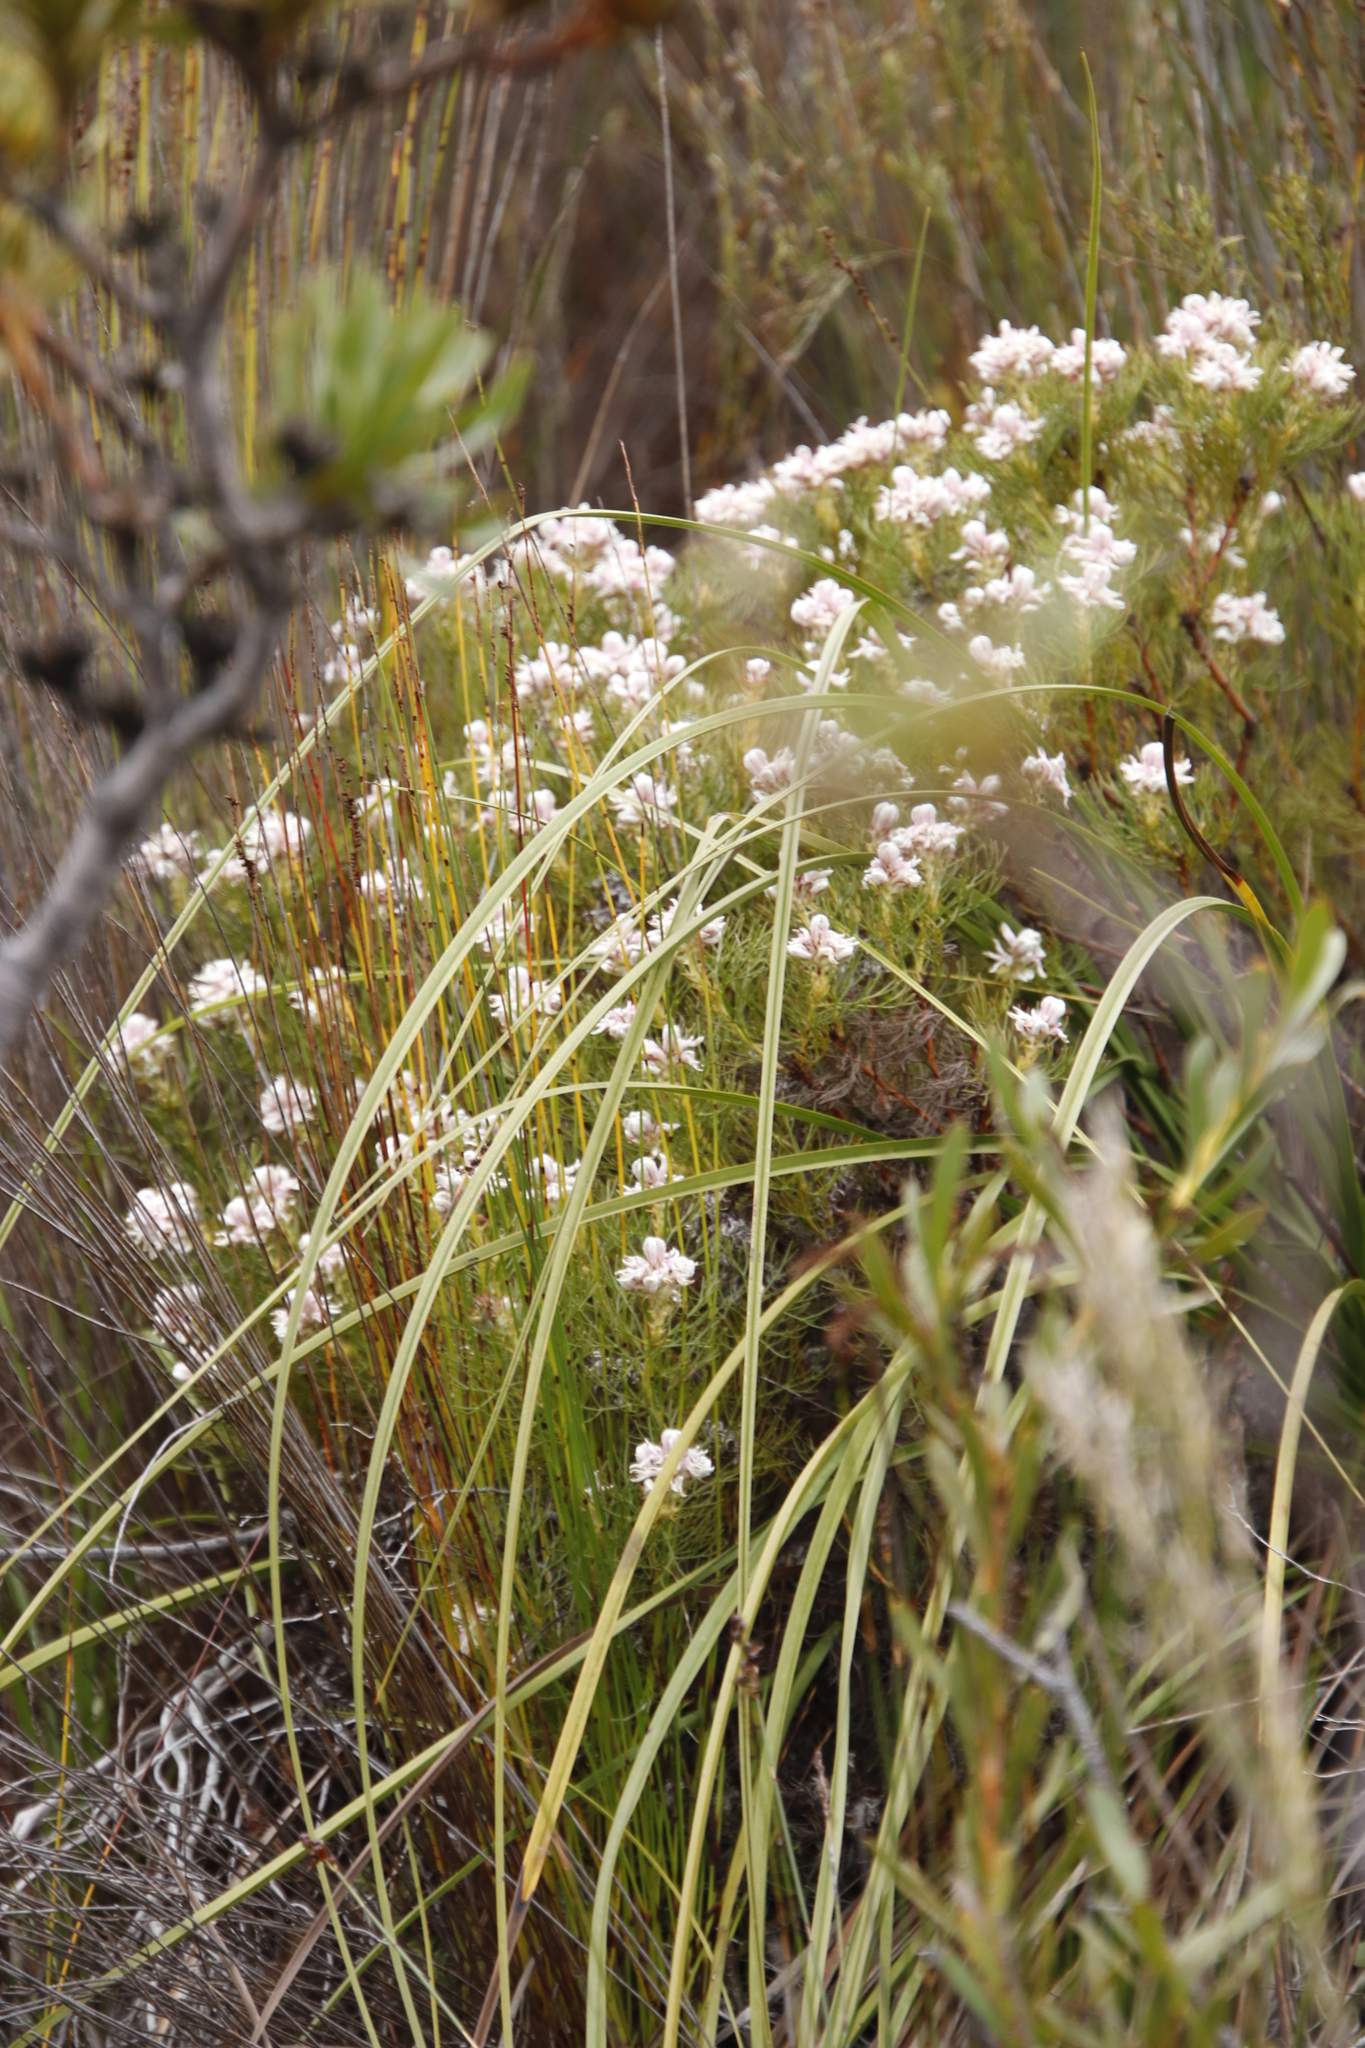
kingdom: Plantae
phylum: Tracheophyta
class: Magnoliopsida
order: Proteales
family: Proteaceae
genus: Serruria
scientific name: Serruria ascendens
